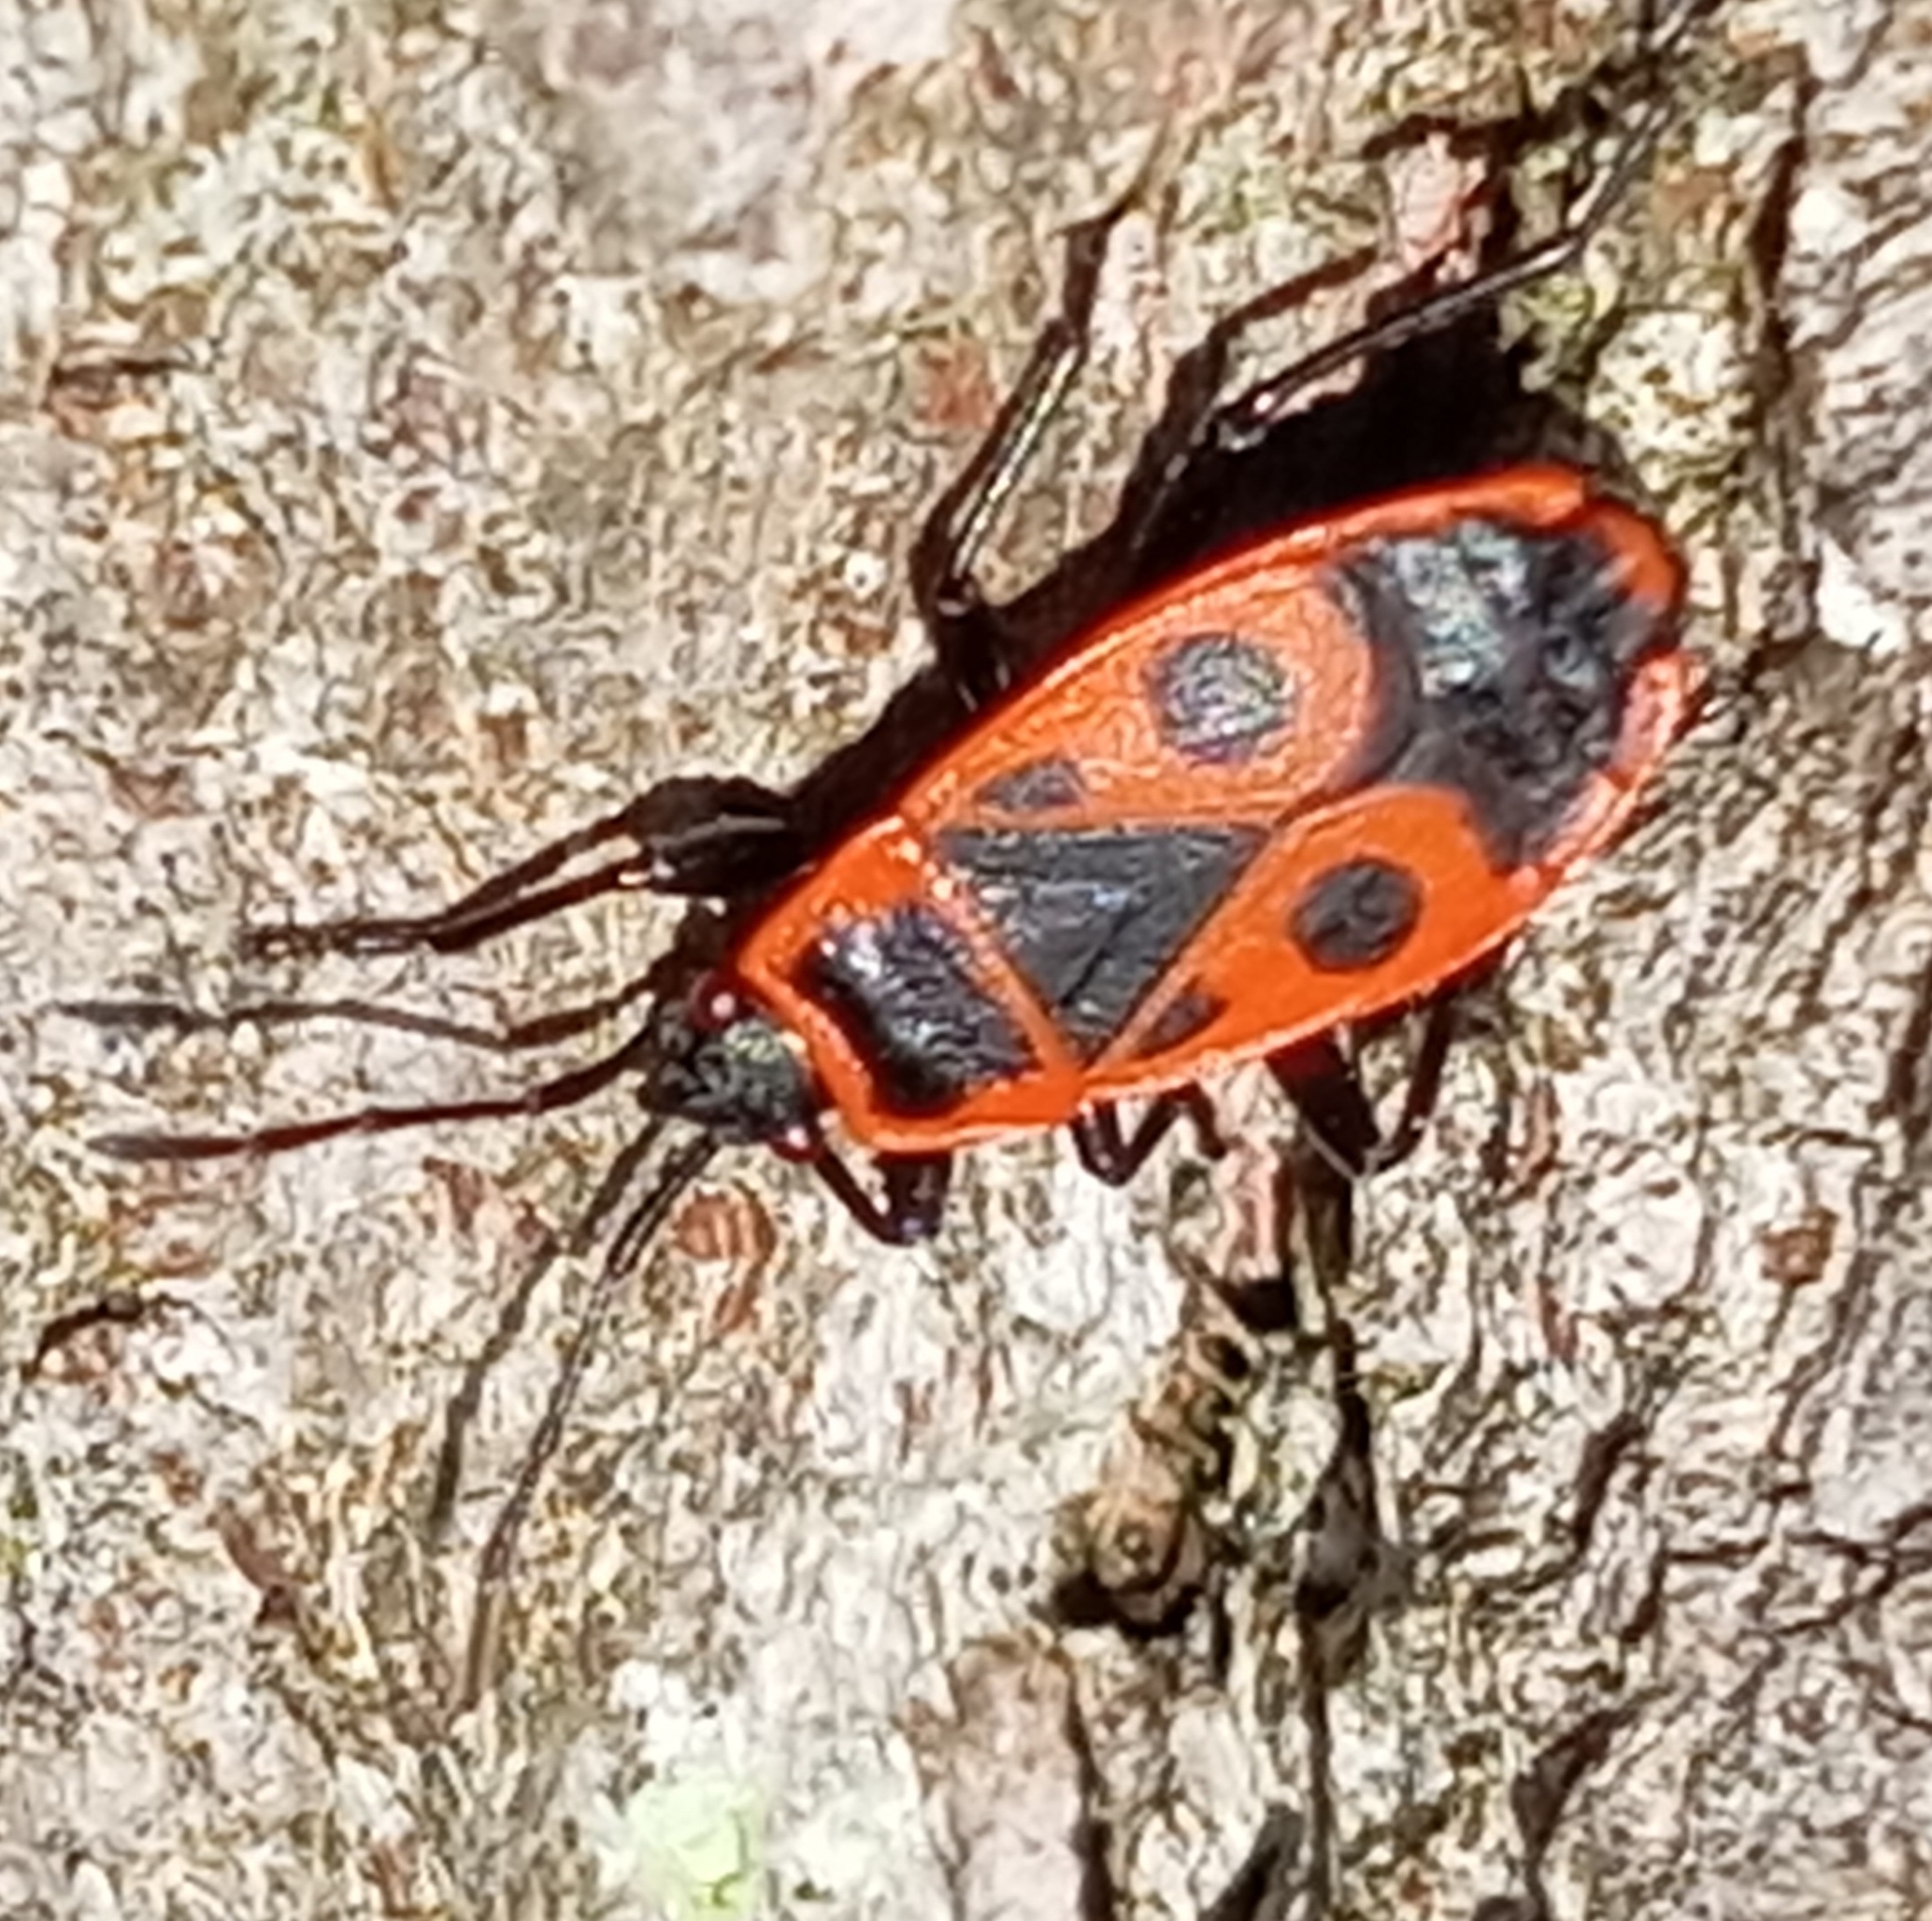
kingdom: Animalia
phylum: Arthropoda
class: Insecta
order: Hemiptera
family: Pyrrhocoridae
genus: Pyrrhocoris
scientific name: Pyrrhocoris apterus
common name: Firebug
